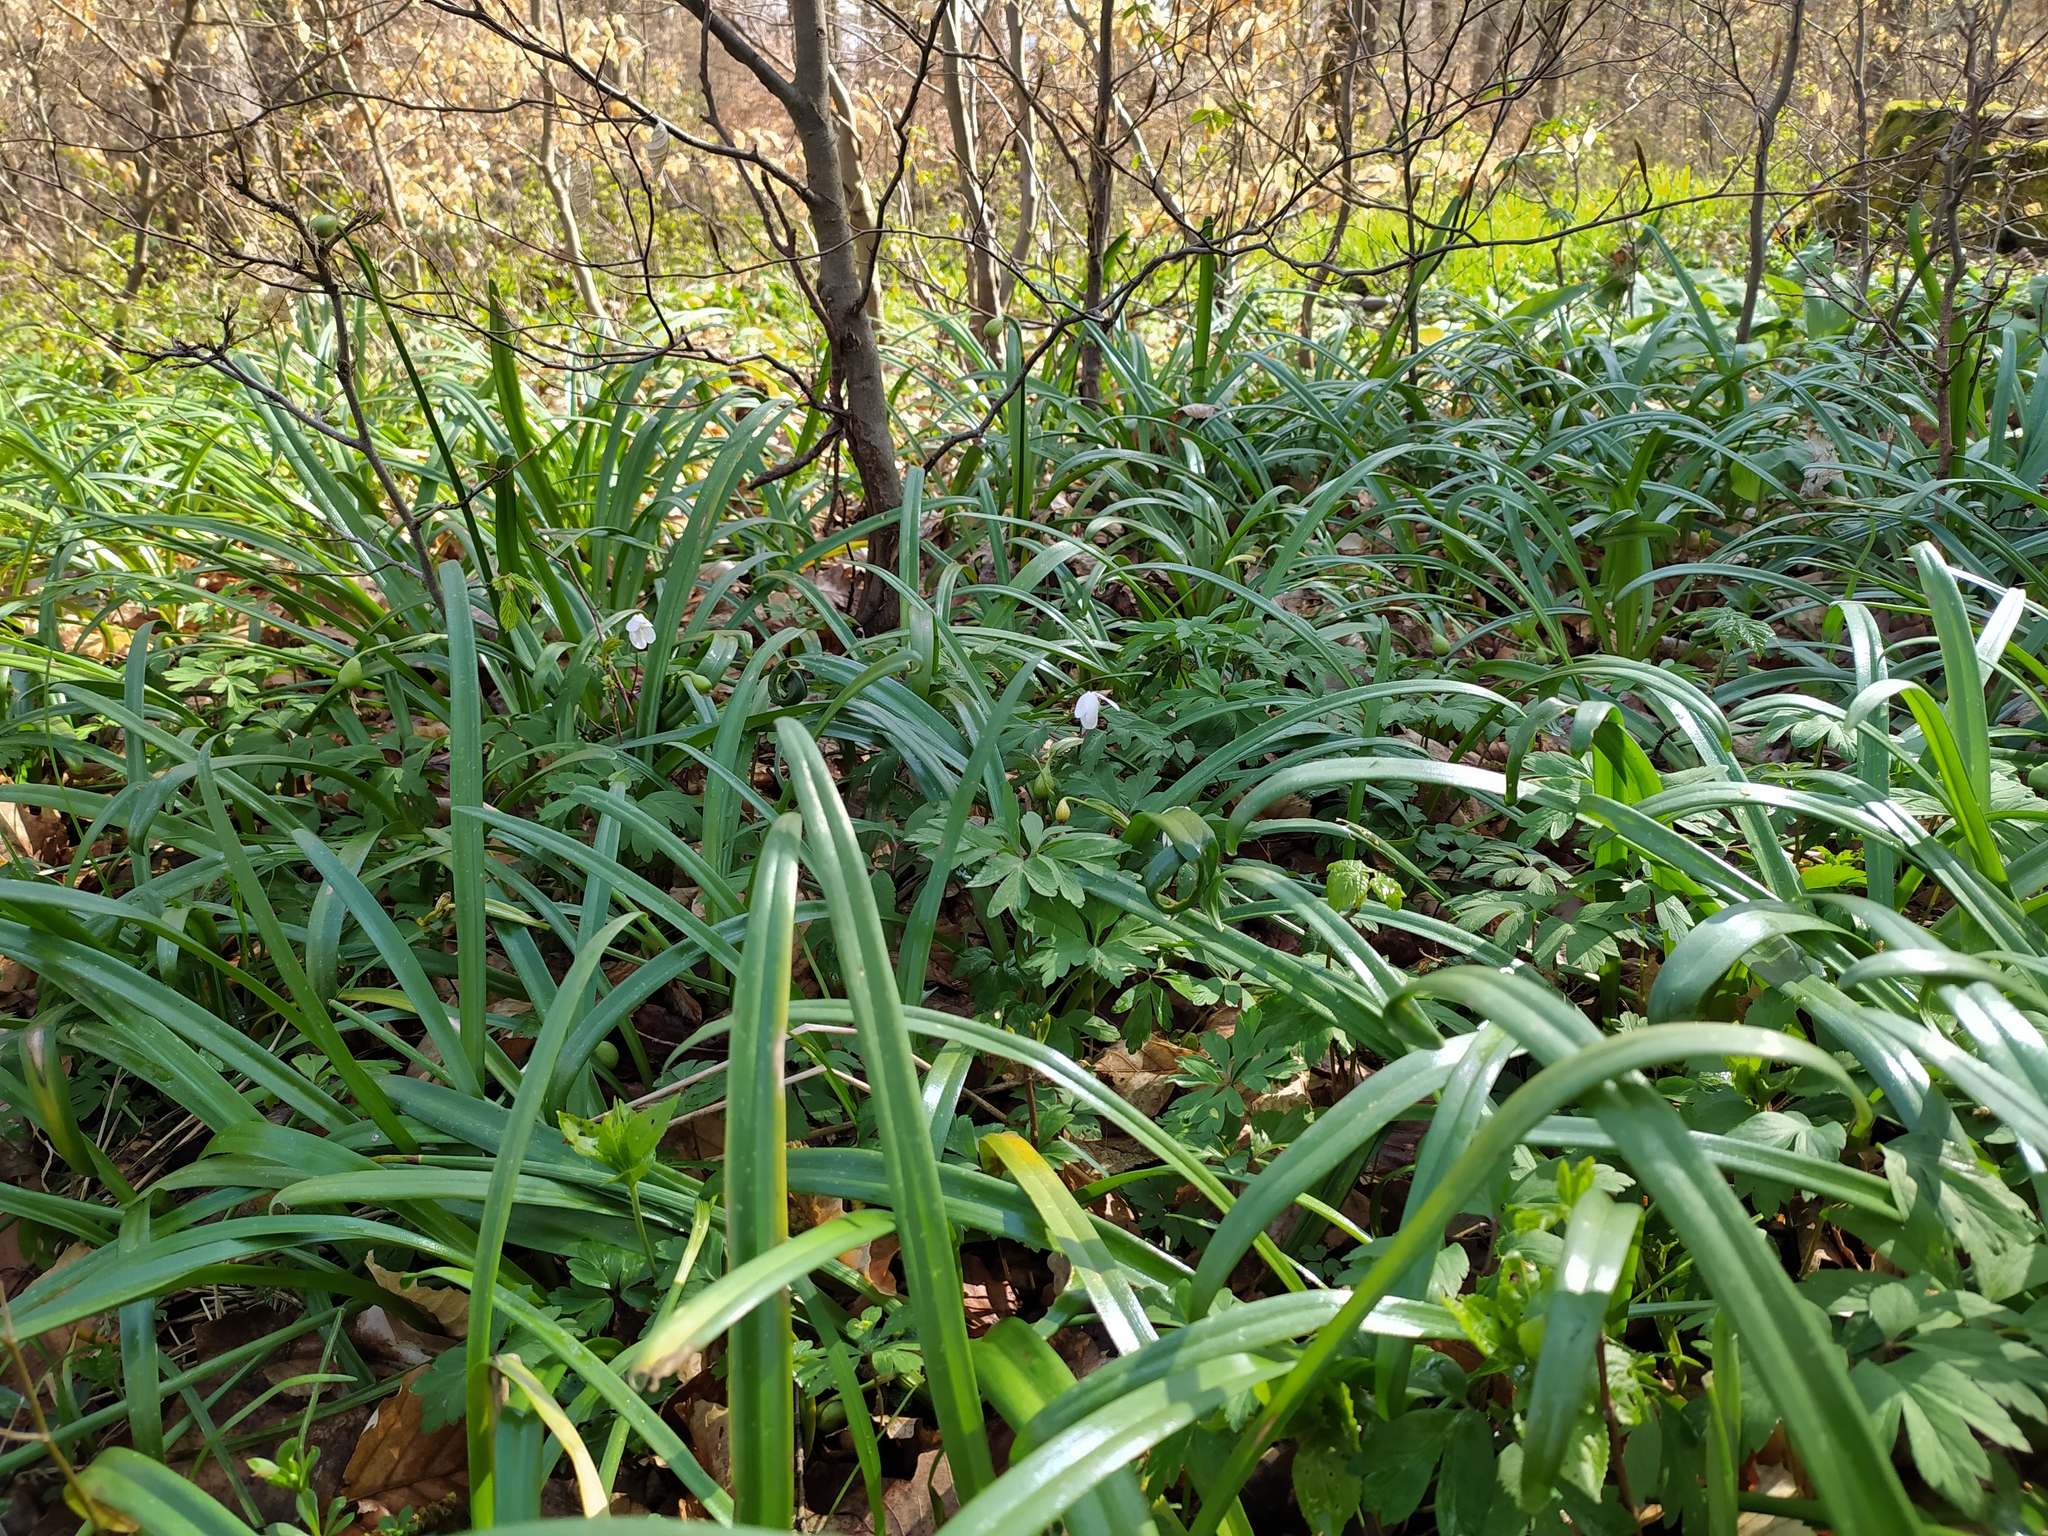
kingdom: Plantae
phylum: Tracheophyta
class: Liliopsida
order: Asparagales
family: Amaryllidaceae
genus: Leucojum
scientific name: Leucojum vernum
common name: Spring snowflake
